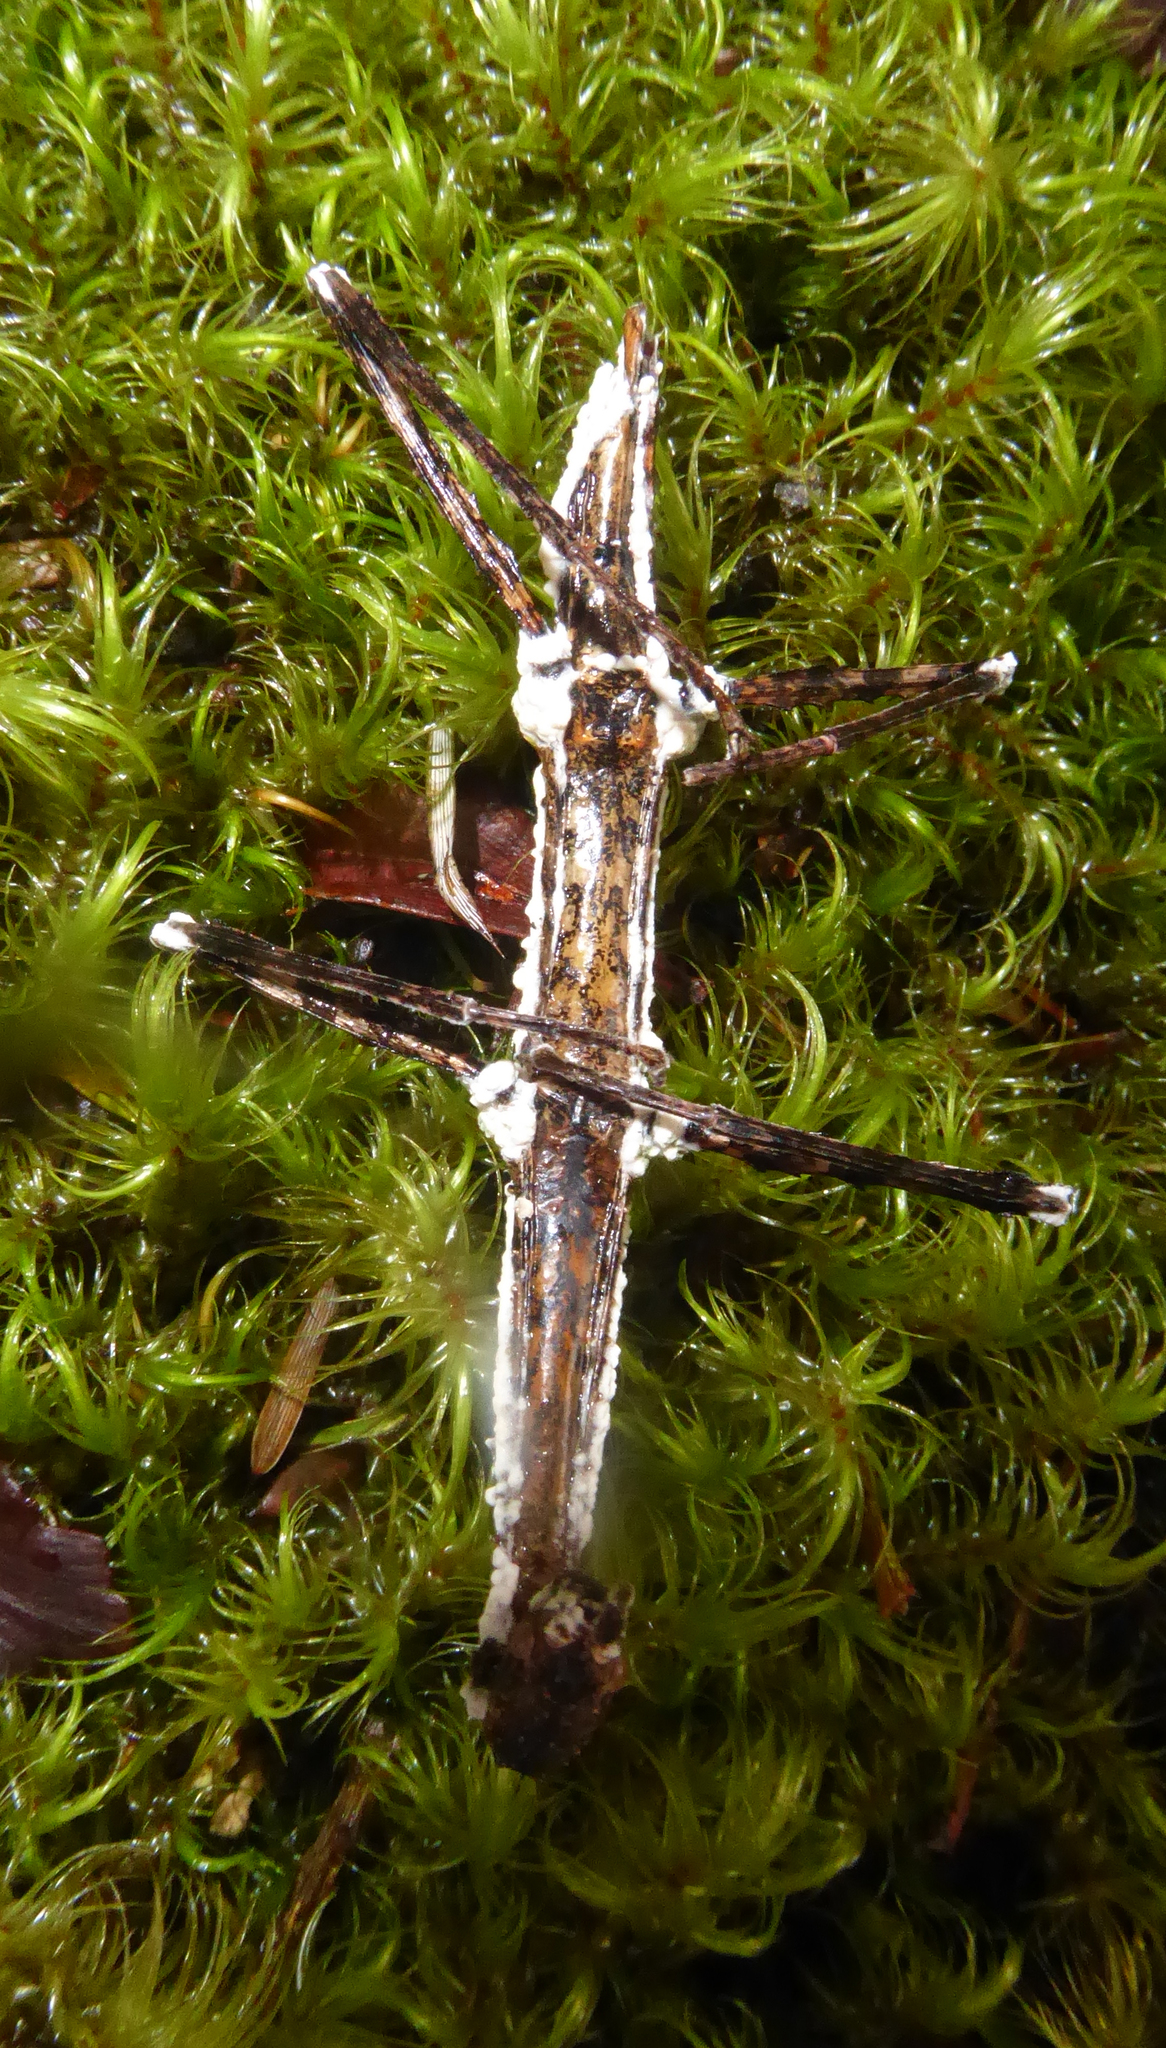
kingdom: Fungi
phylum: Ascomycota
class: Sordariomycetes
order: Hypocreales
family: Cordycipitaceae
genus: Beauveria
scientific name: Beauveria bassiana
